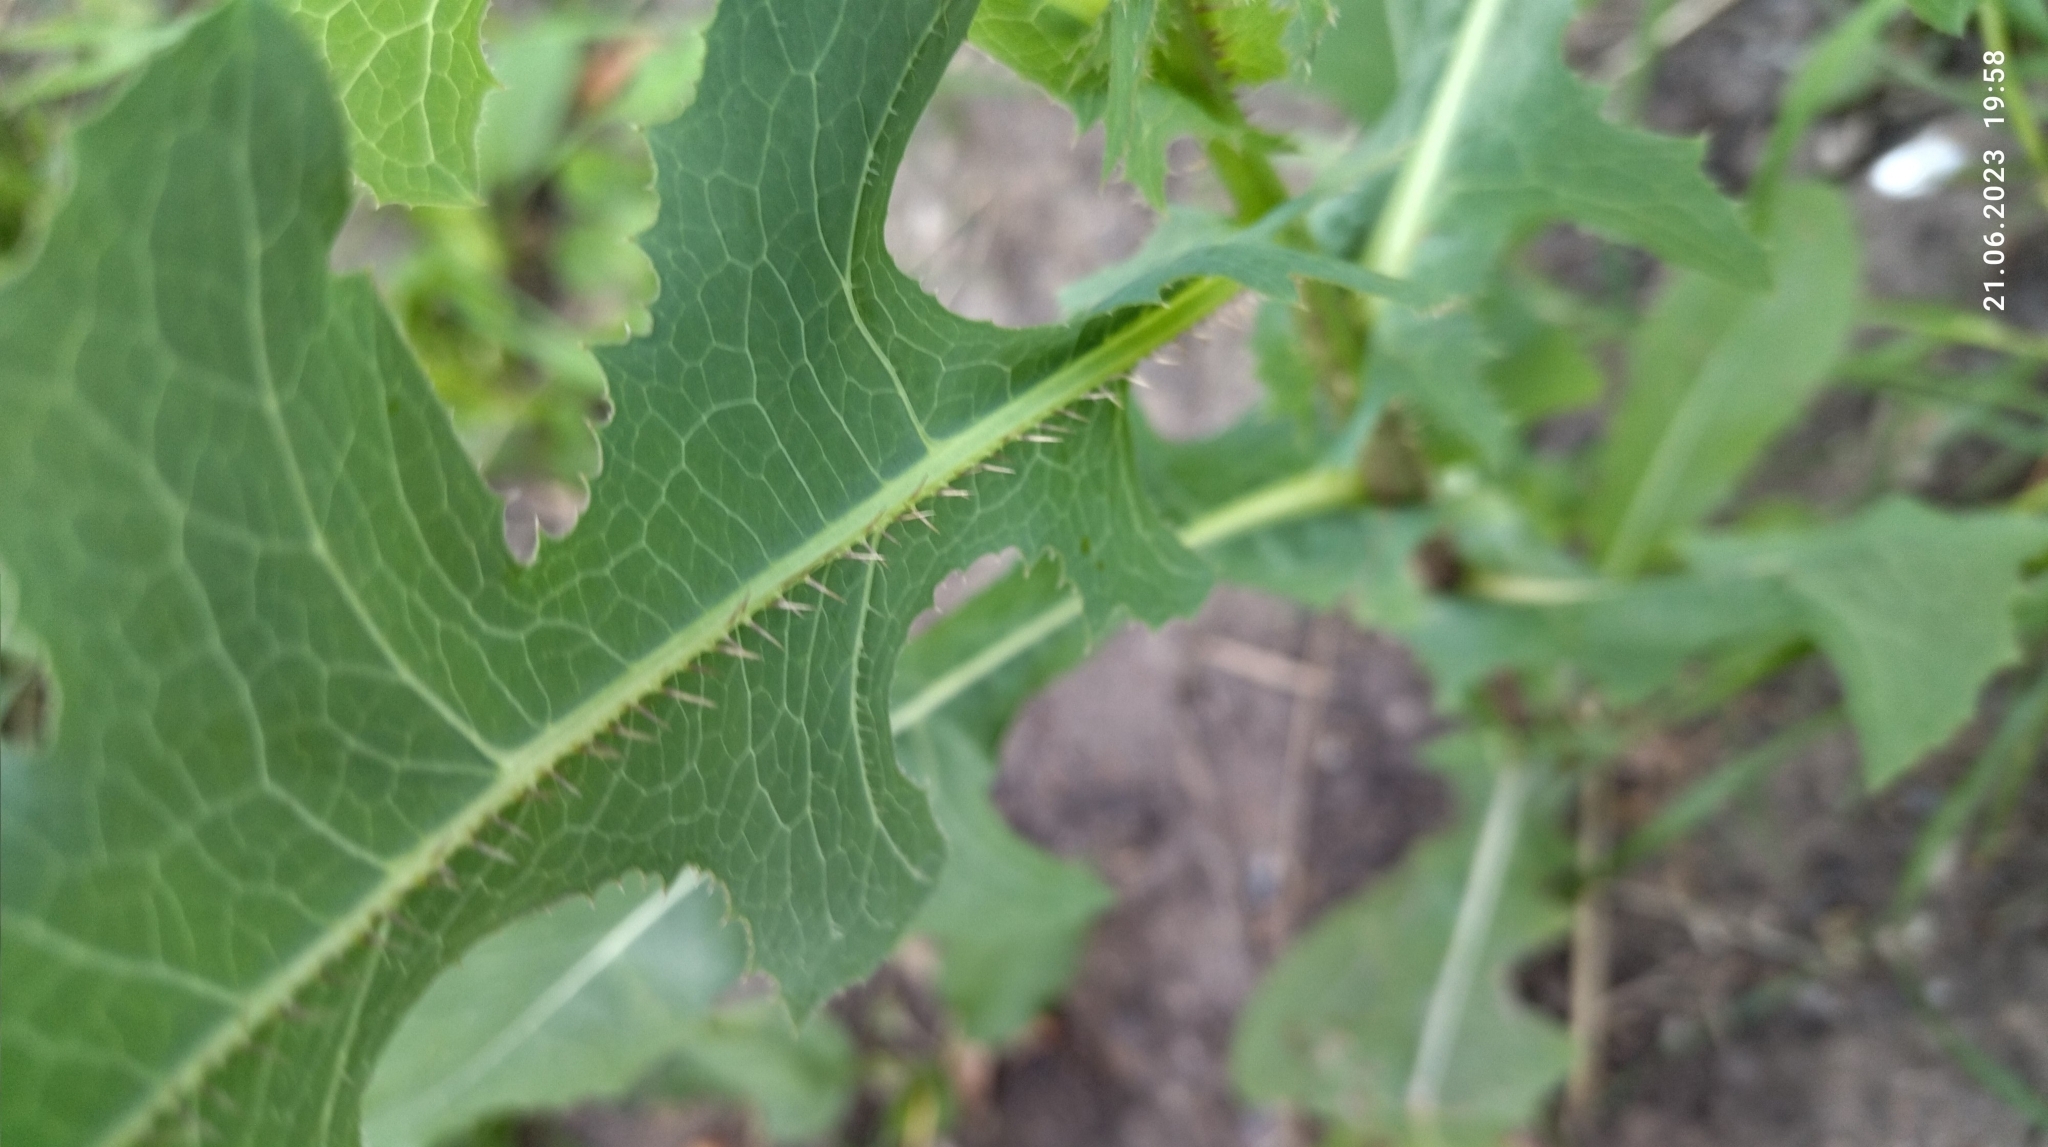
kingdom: Plantae
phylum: Tracheophyta
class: Magnoliopsida
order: Asterales
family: Asteraceae
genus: Lactuca
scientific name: Lactuca serriola
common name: Prickly lettuce
